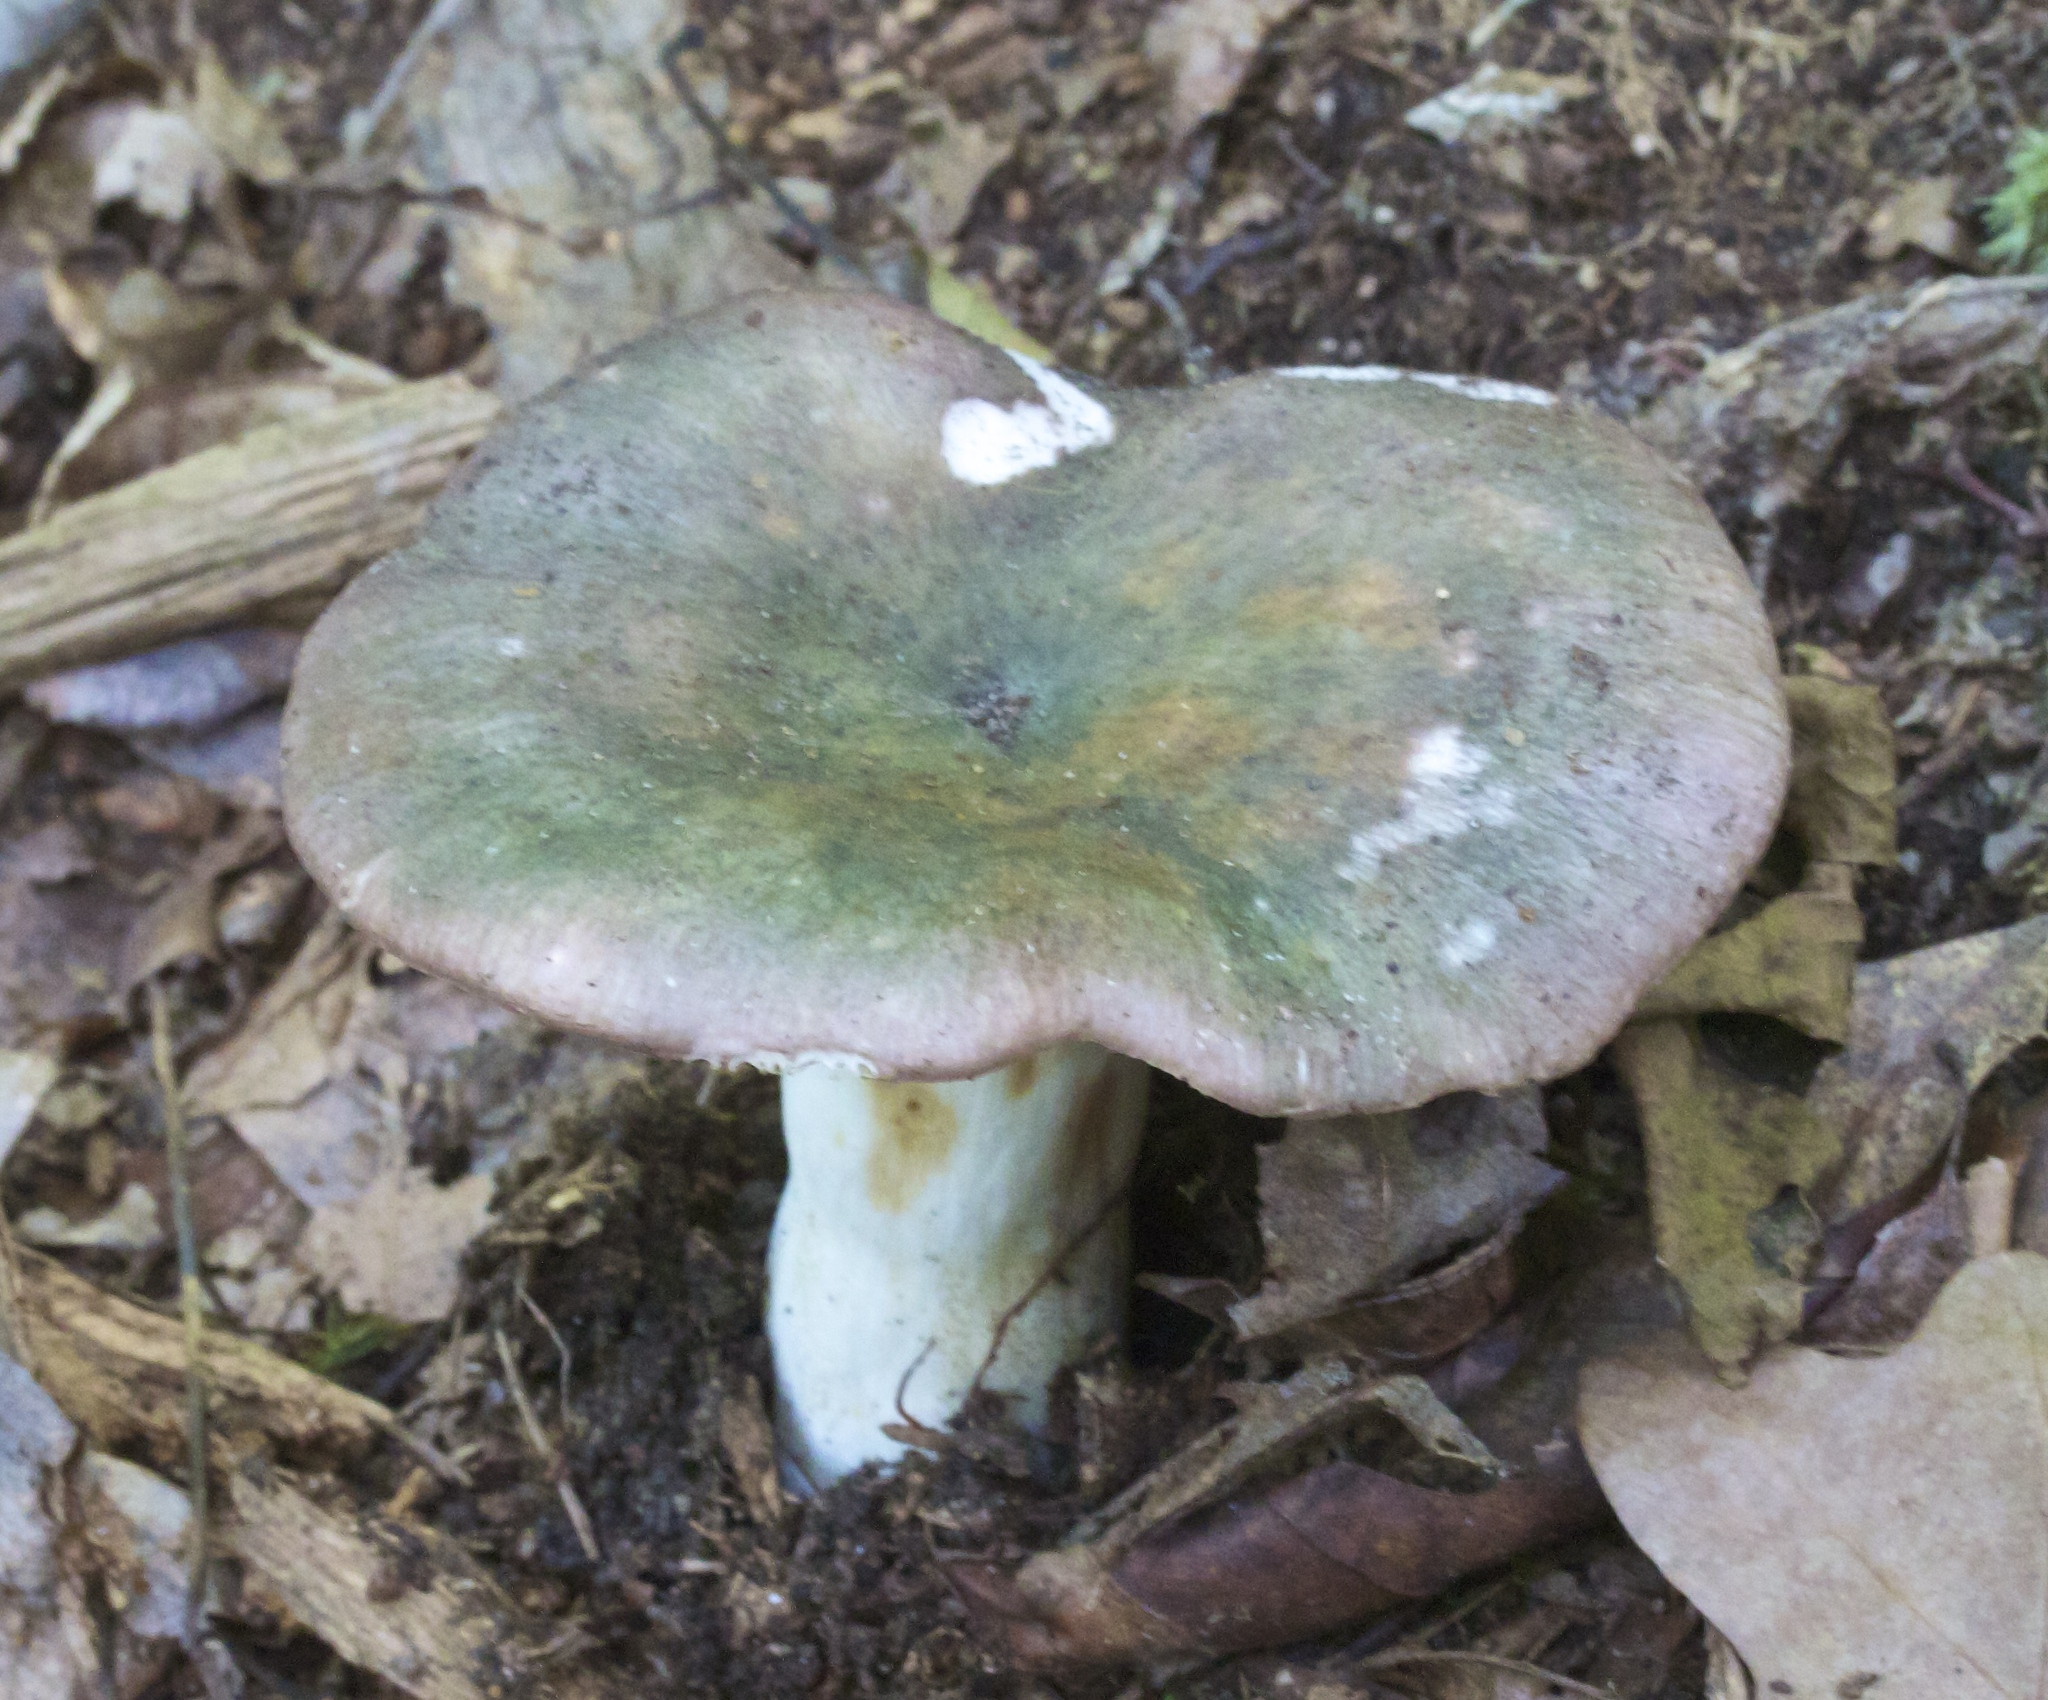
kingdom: Fungi
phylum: Basidiomycota
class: Agaricomycetes
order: Russulales
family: Russulaceae
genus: Russula
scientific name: Russula cyanoxantha
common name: Charcoal burner
